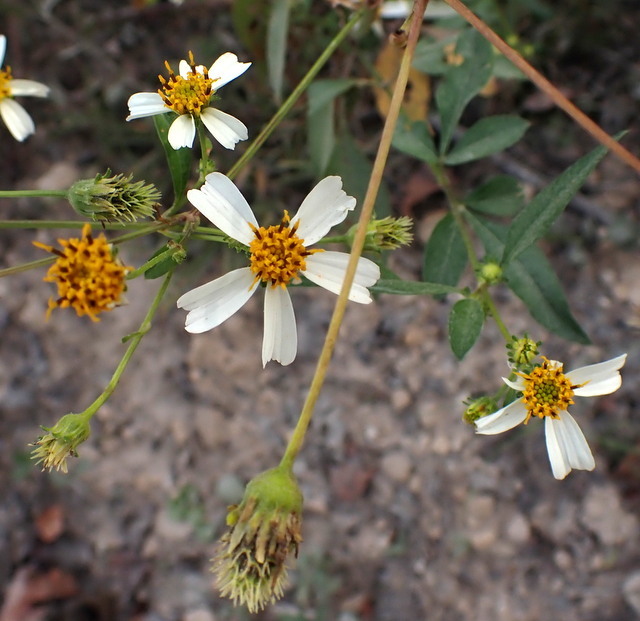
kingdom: Plantae
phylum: Tracheophyta
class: Magnoliopsida
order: Asterales
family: Asteraceae
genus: Bidens
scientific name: Bidens alba
